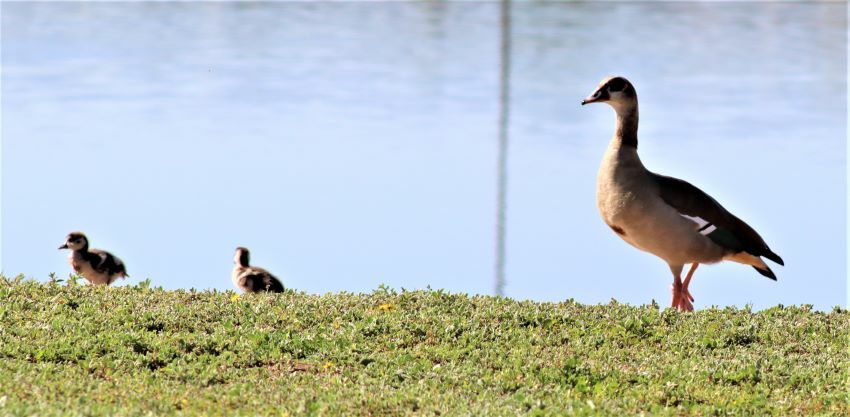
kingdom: Animalia
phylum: Chordata
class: Aves
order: Anseriformes
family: Anatidae
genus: Alopochen
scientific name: Alopochen aegyptiaca
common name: Egyptian goose
